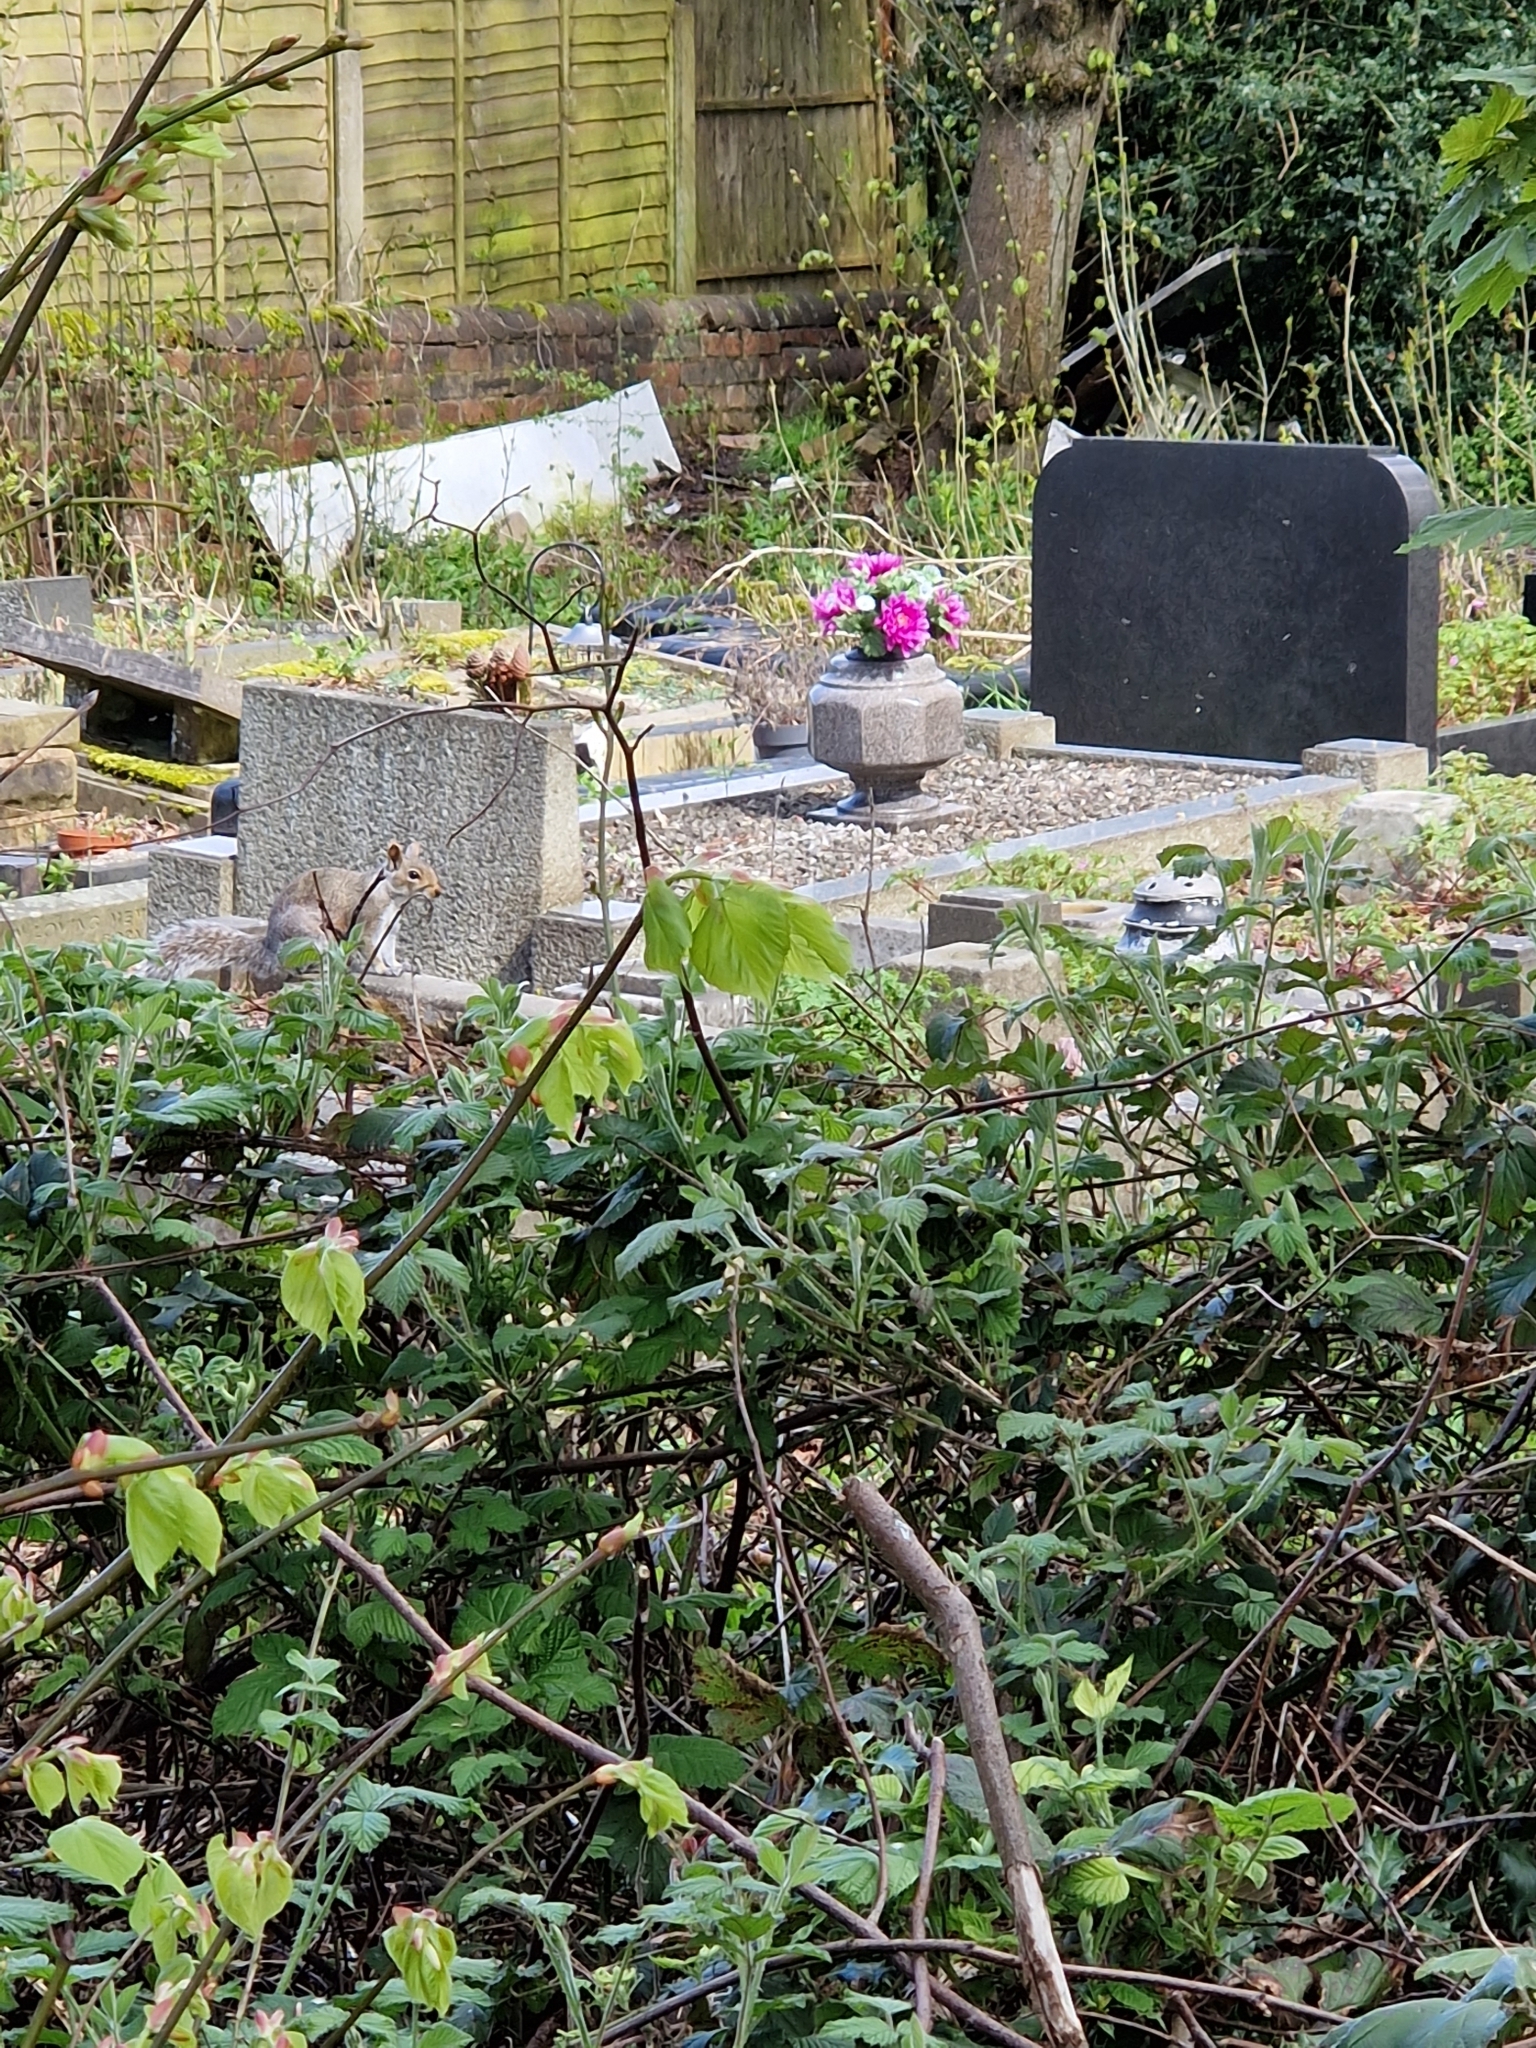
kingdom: Animalia
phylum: Chordata
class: Mammalia
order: Rodentia
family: Sciuridae
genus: Sciurus
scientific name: Sciurus carolinensis
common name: Eastern gray squirrel
